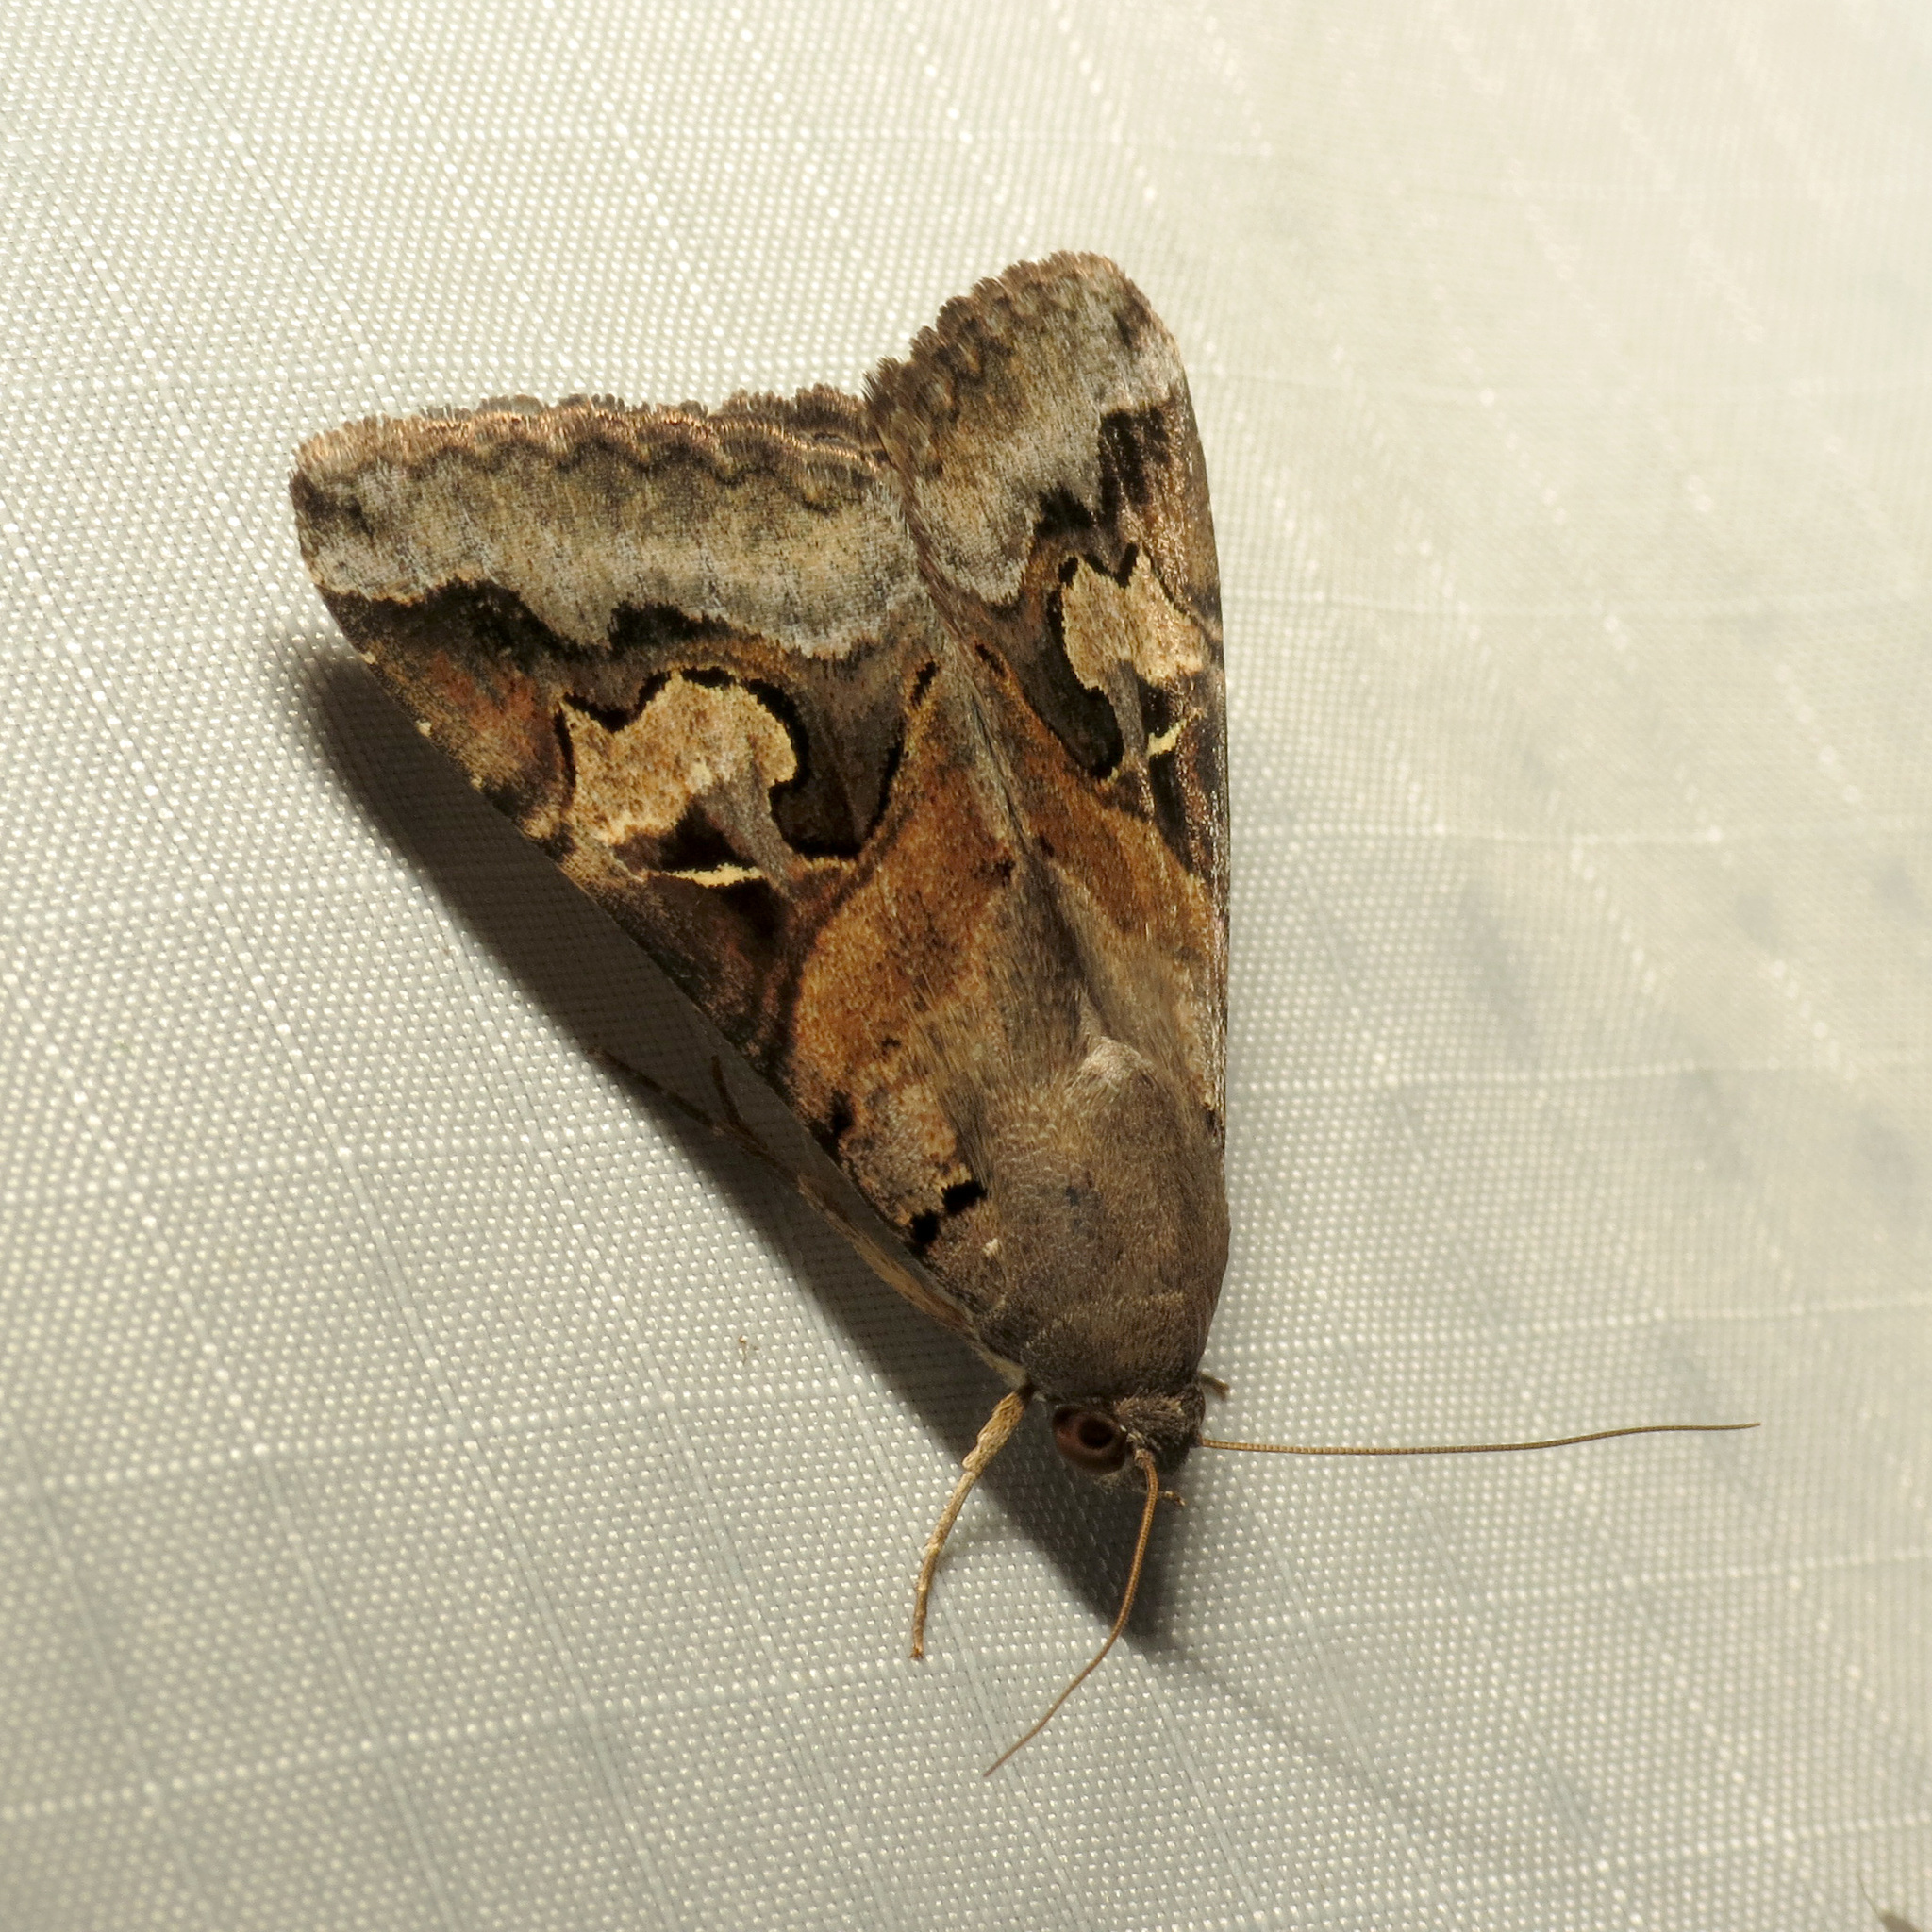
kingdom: Animalia
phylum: Arthropoda
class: Insecta
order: Lepidoptera
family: Erebidae
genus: Melipotis
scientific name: Melipotis indomita
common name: Moth
